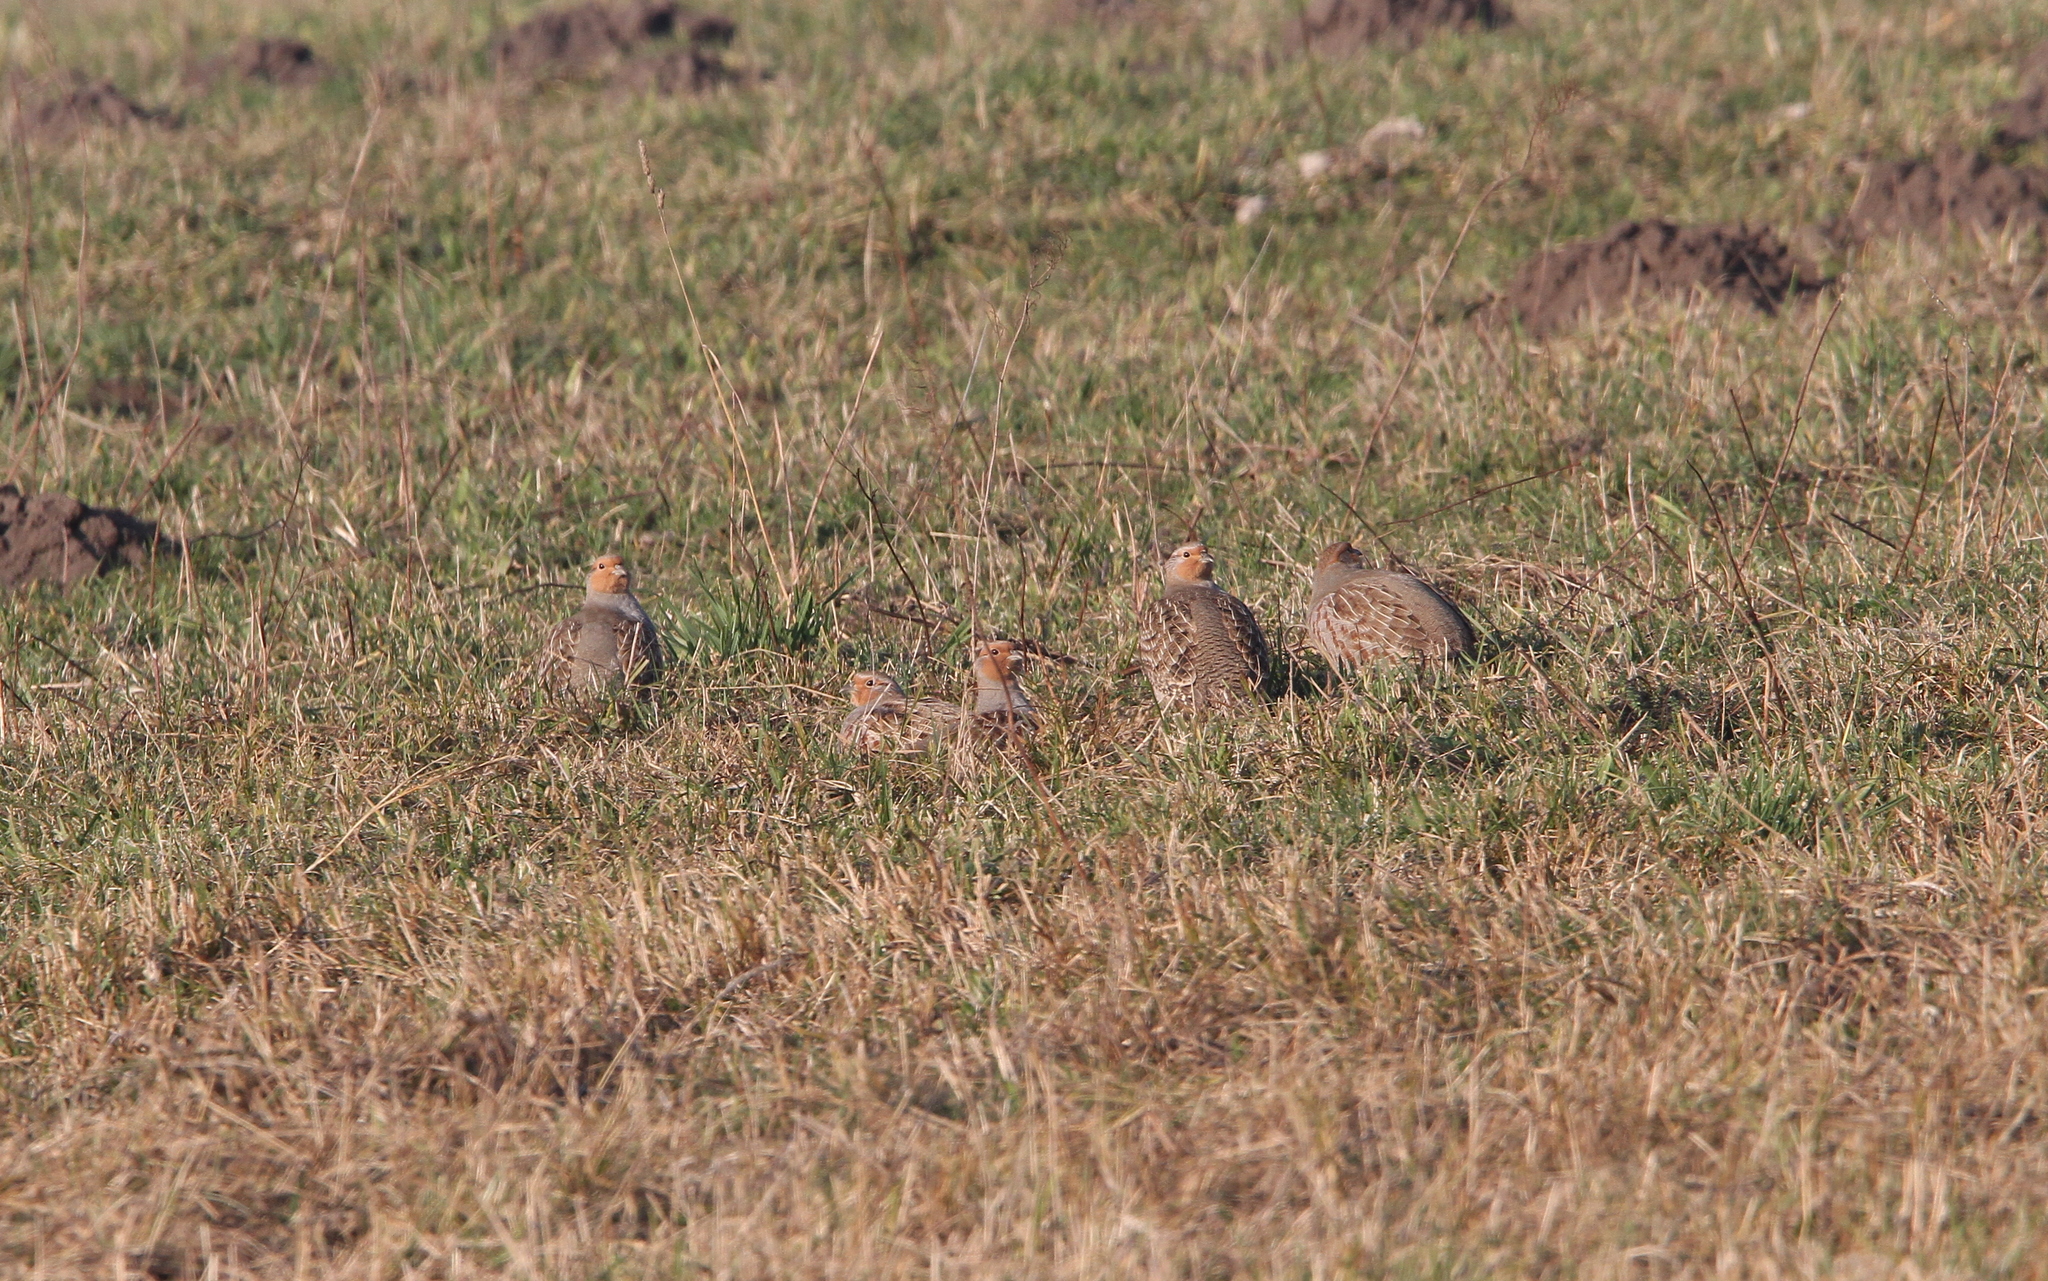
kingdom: Animalia
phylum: Chordata
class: Aves
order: Galliformes
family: Phasianidae
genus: Perdix
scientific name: Perdix perdix
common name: Grey partridge
